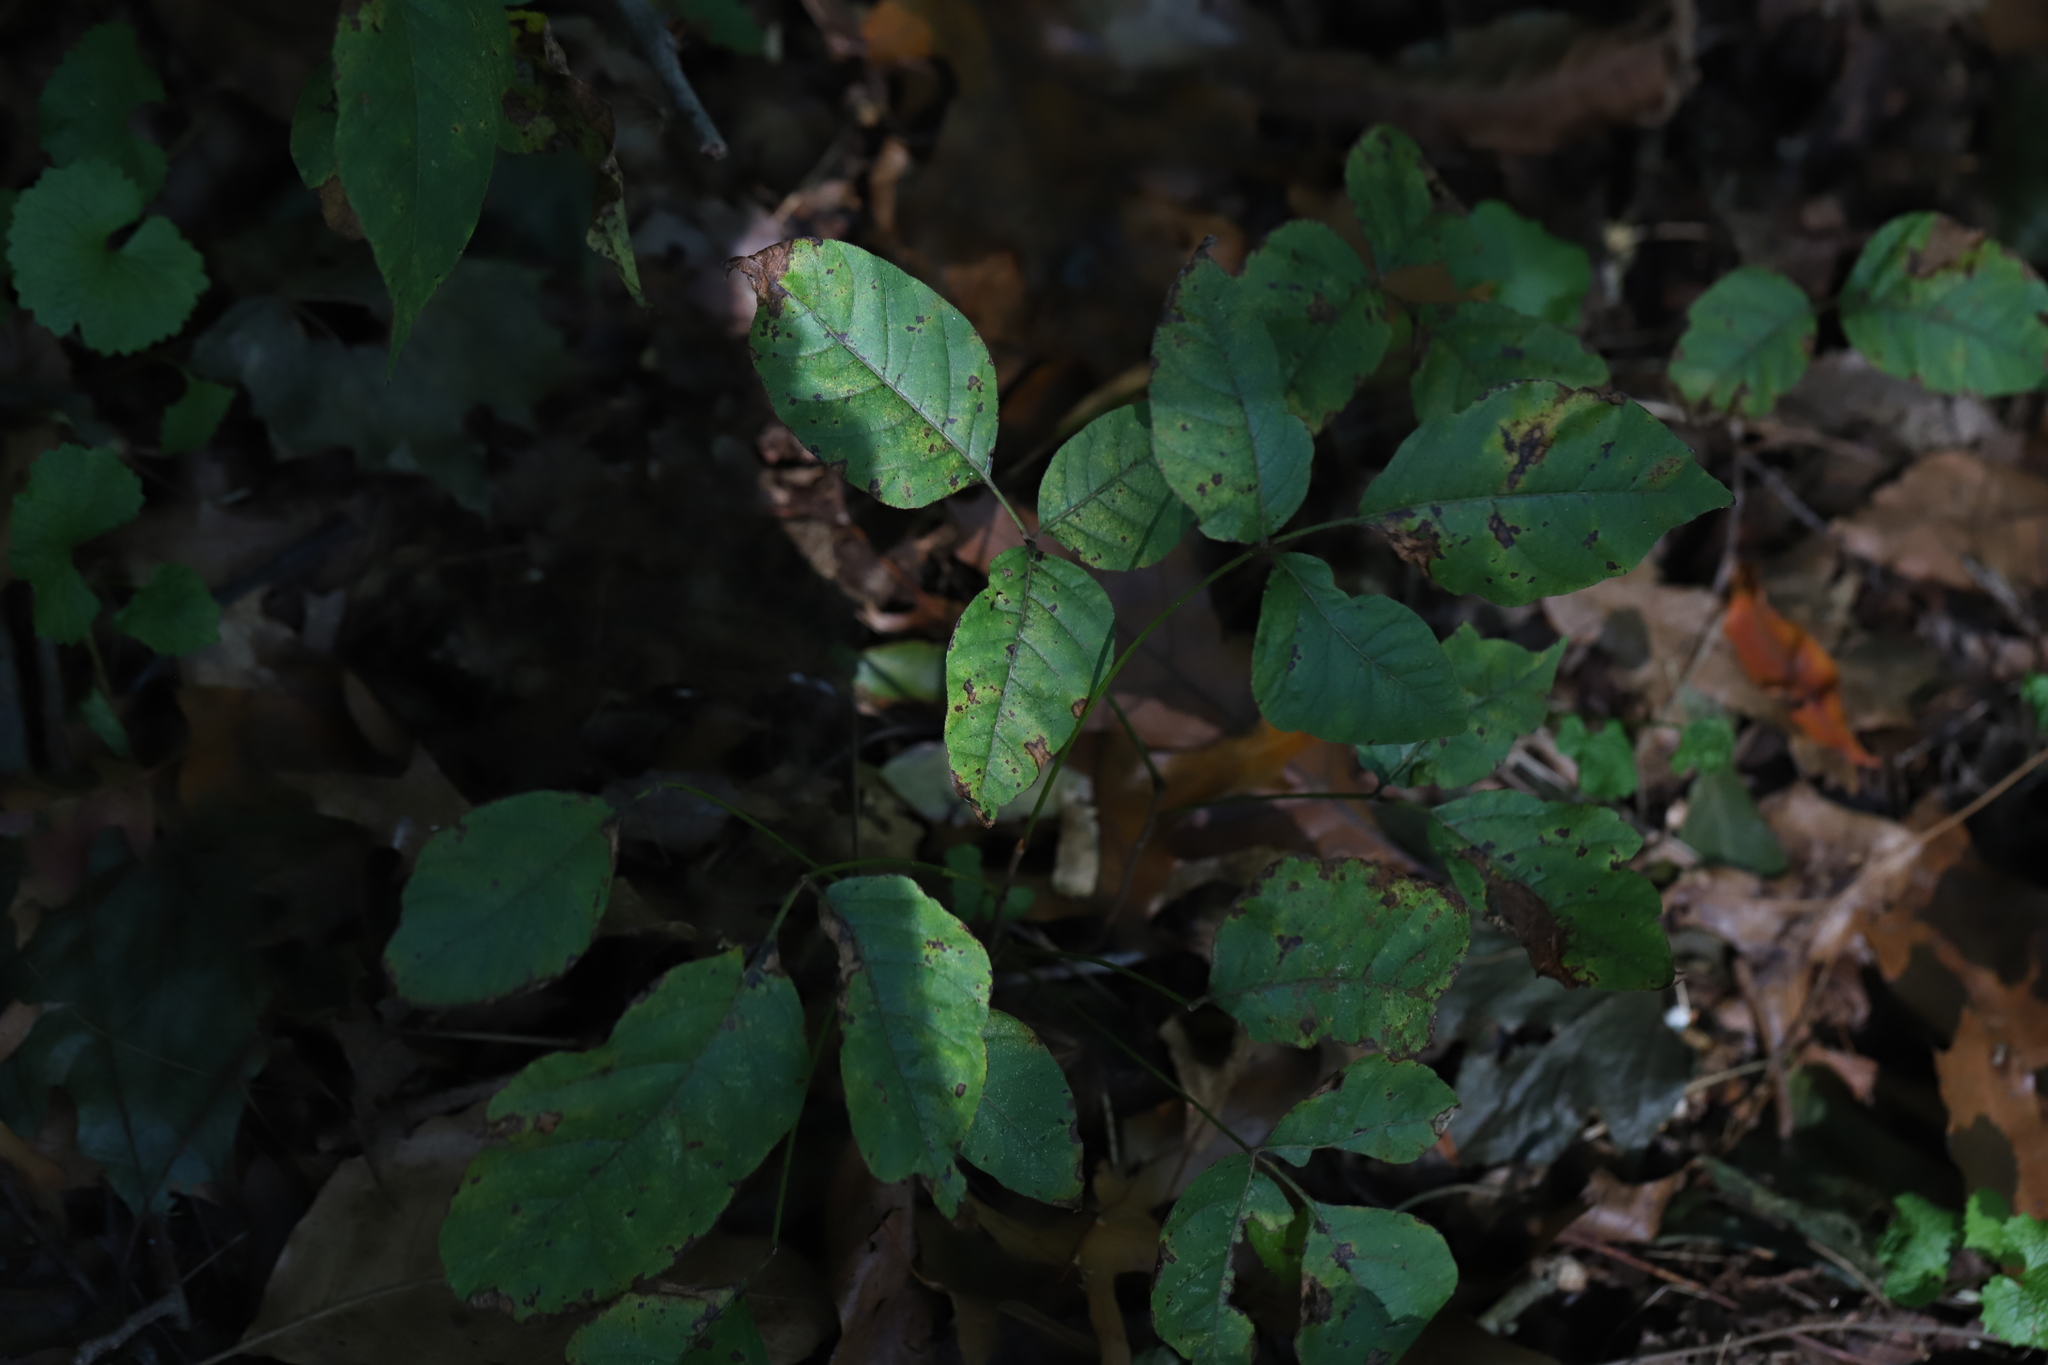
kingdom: Plantae
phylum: Tracheophyta
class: Magnoliopsida
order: Sapindales
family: Anacardiaceae
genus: Toxicodendron
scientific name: Toxicodendron radicans
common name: Poison ivy
